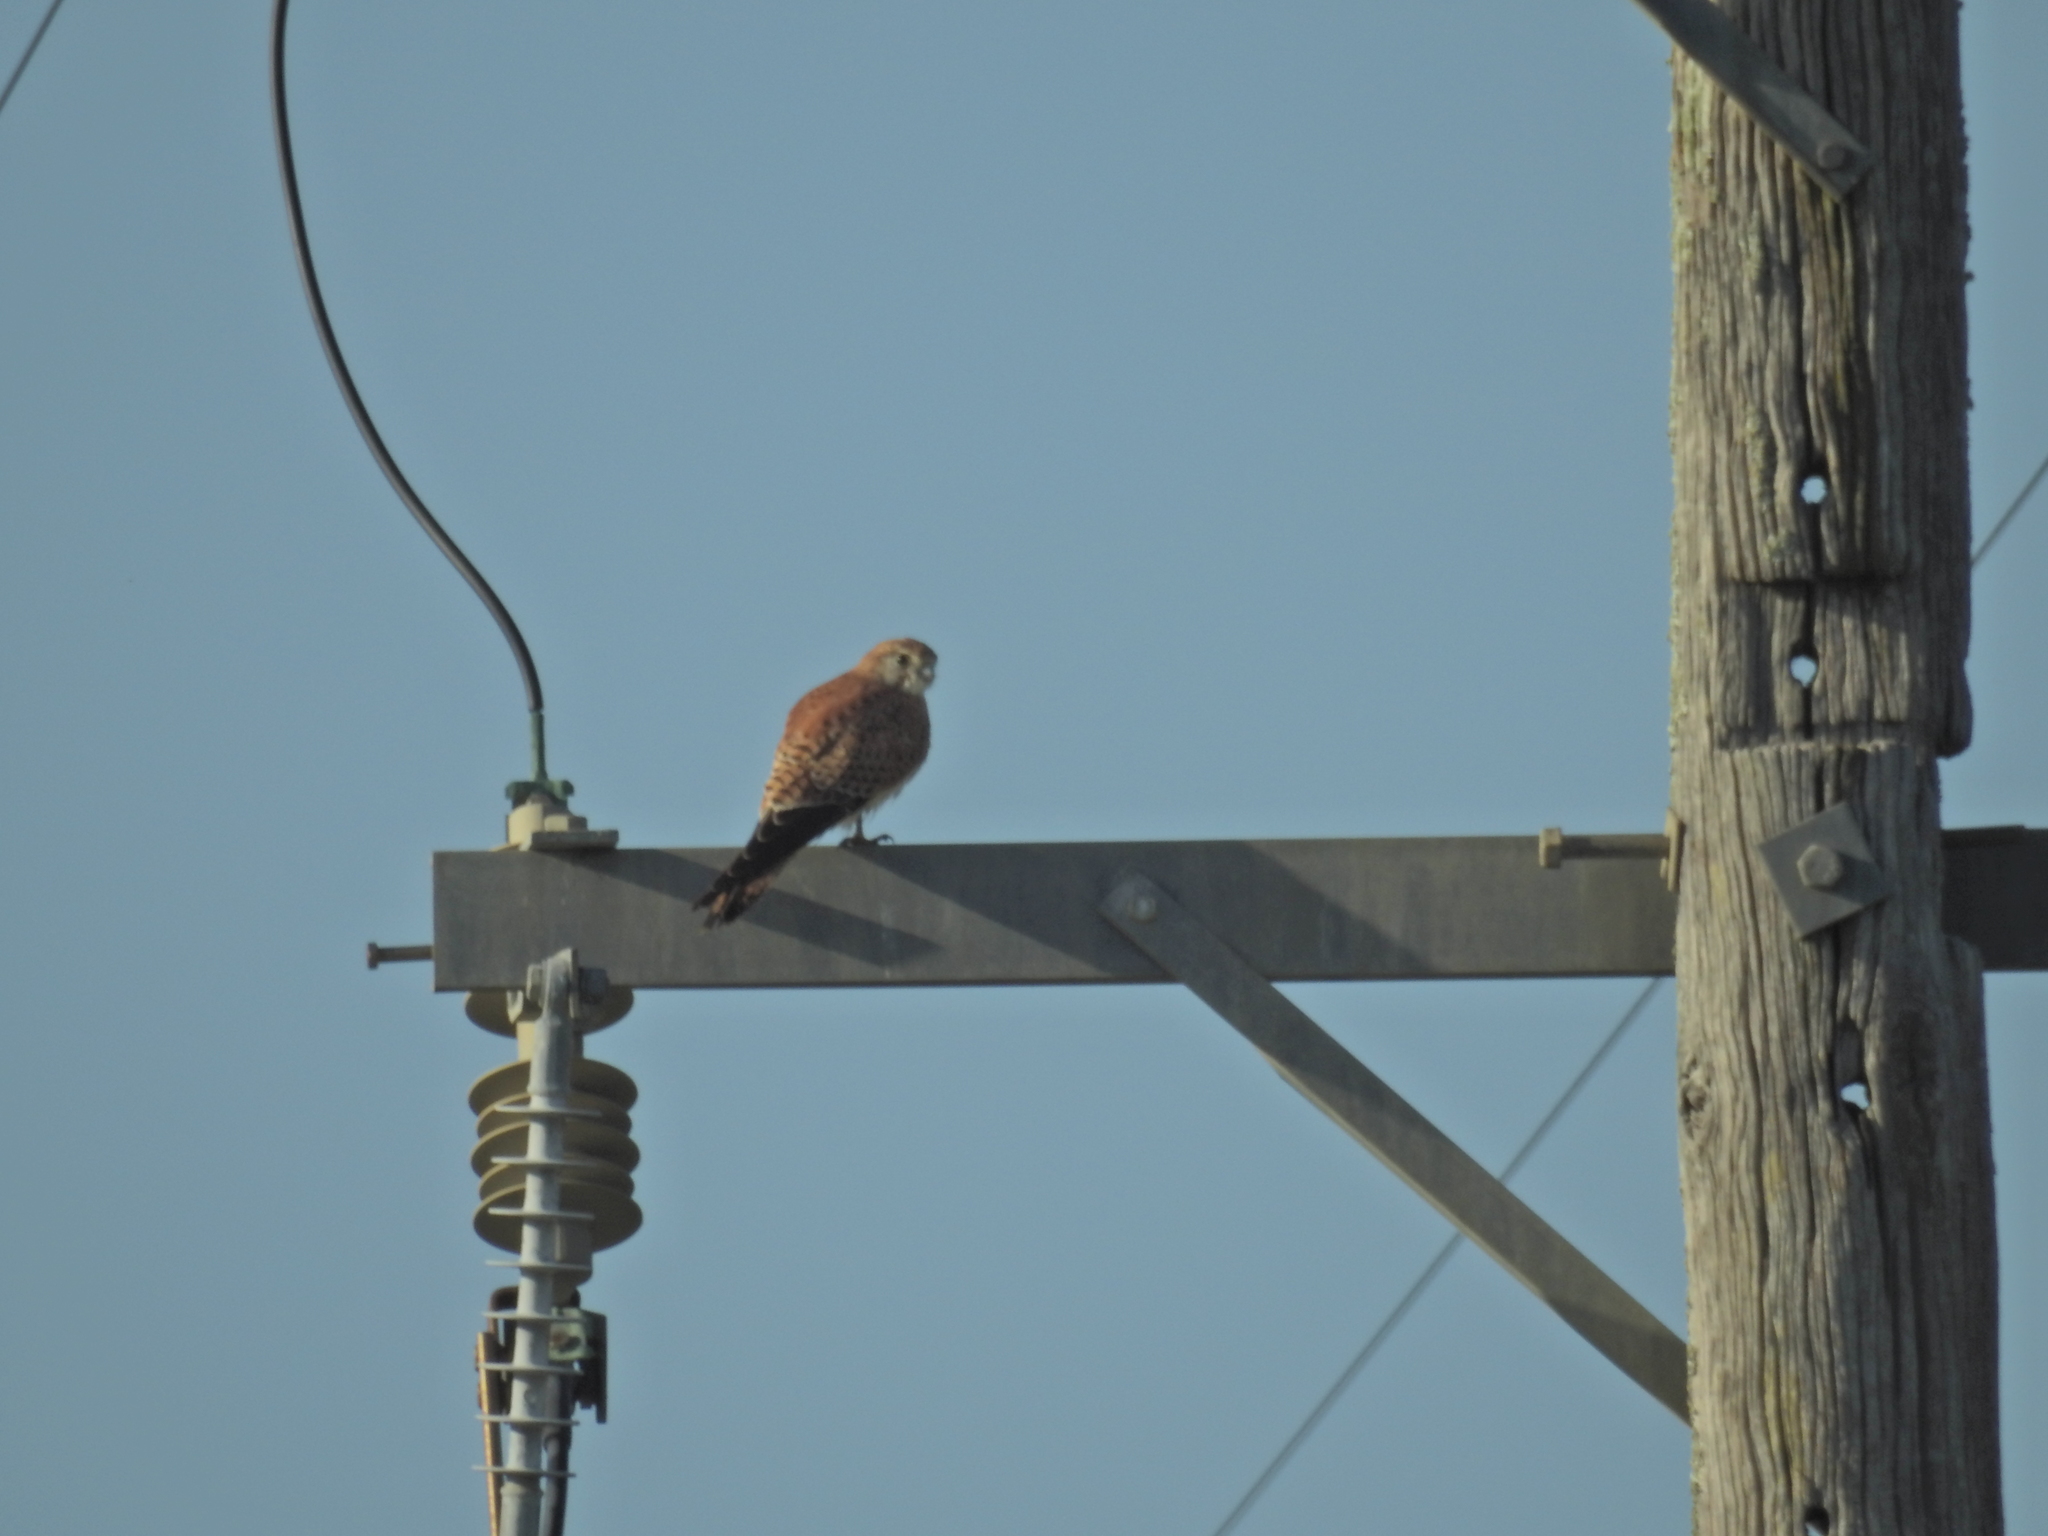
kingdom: Animalia
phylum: Chordata
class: Aves
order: Falconiformes
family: Falconidae
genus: Falco
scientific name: Falco cenchroides
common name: Nankeen kestrel
